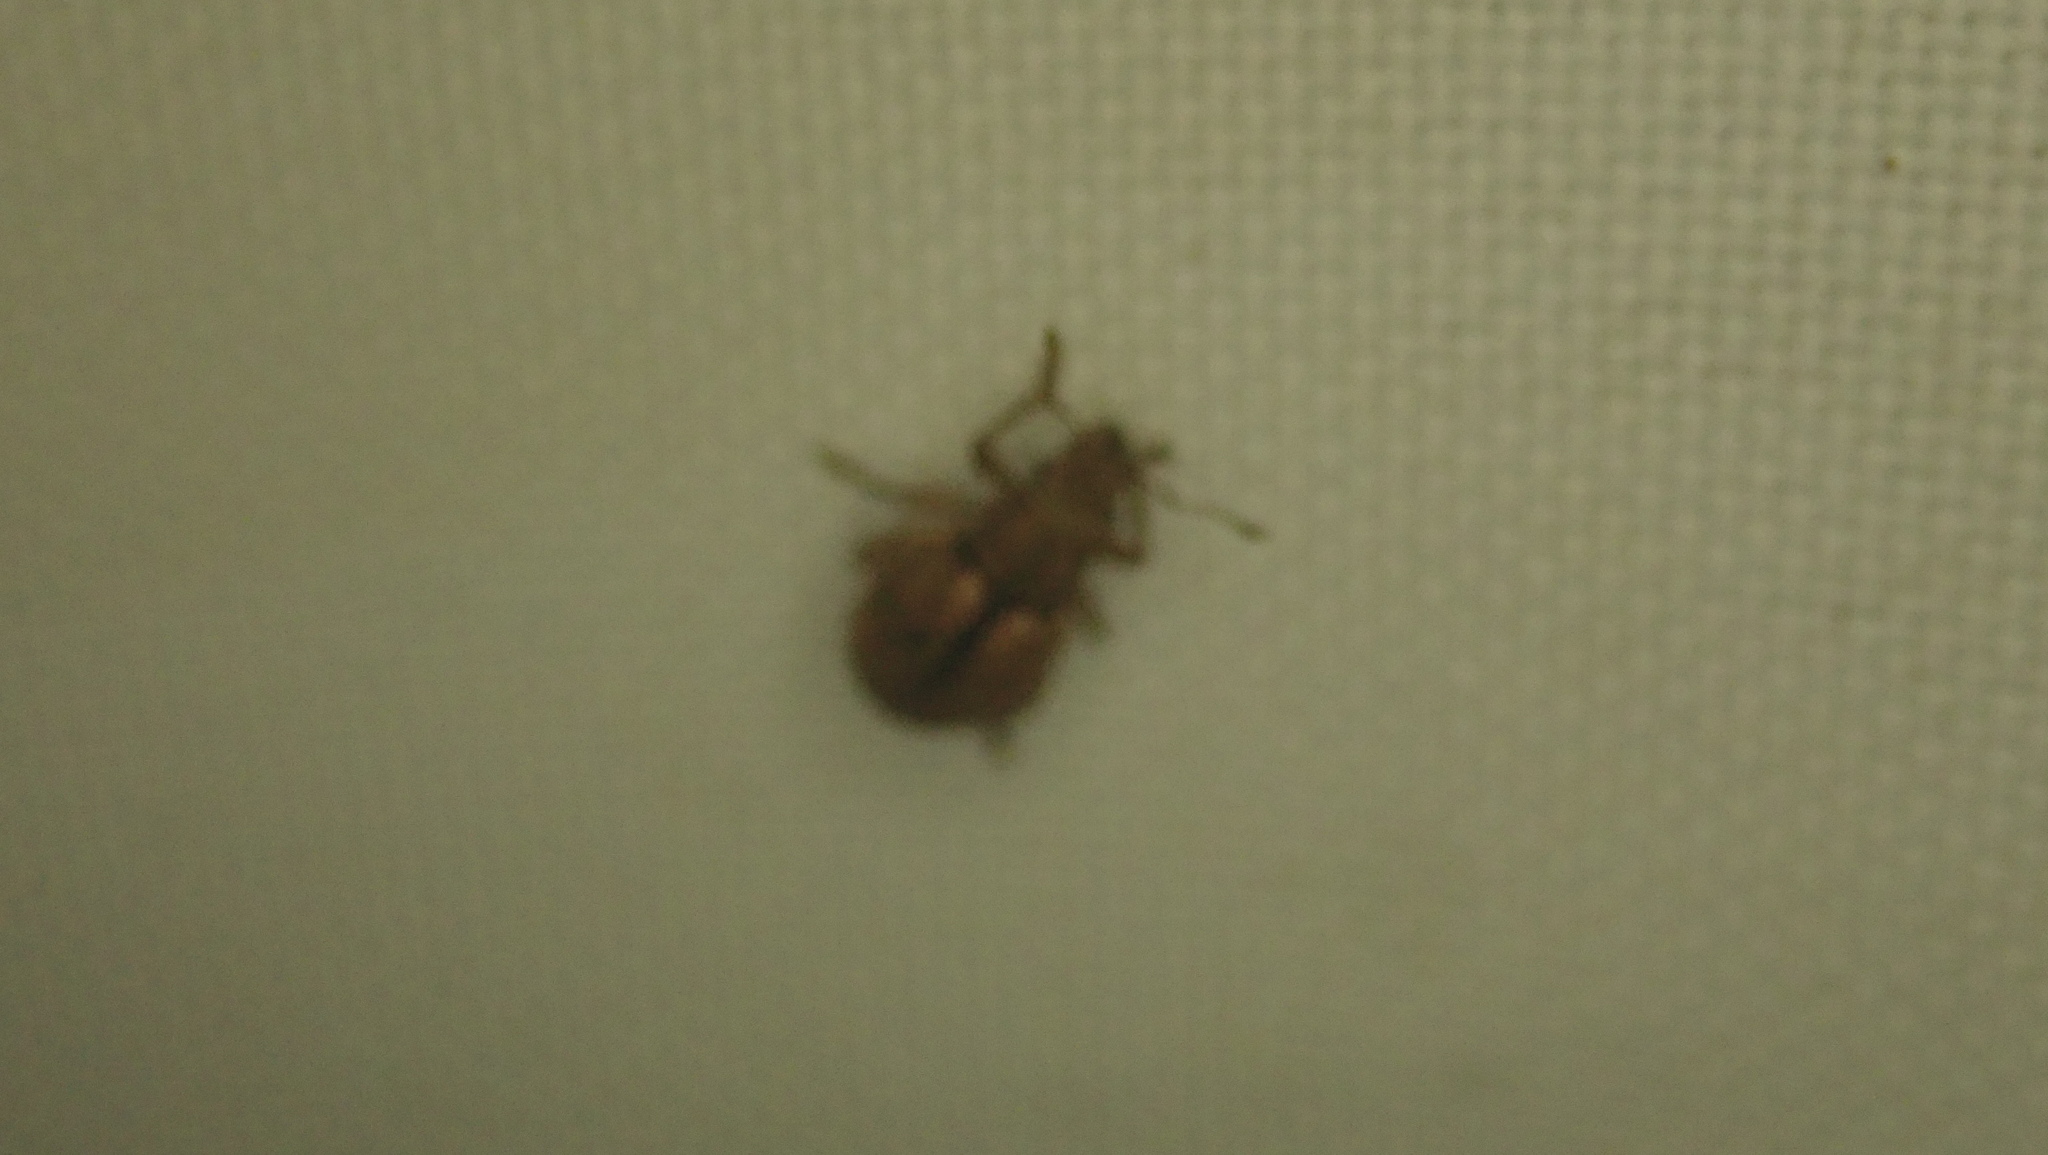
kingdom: Animalia
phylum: Arthropoda
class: Insecta
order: Coleoptera
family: Curculionidae
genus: Strophosoma
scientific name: Strophosoma melanogrammum
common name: Weevil
